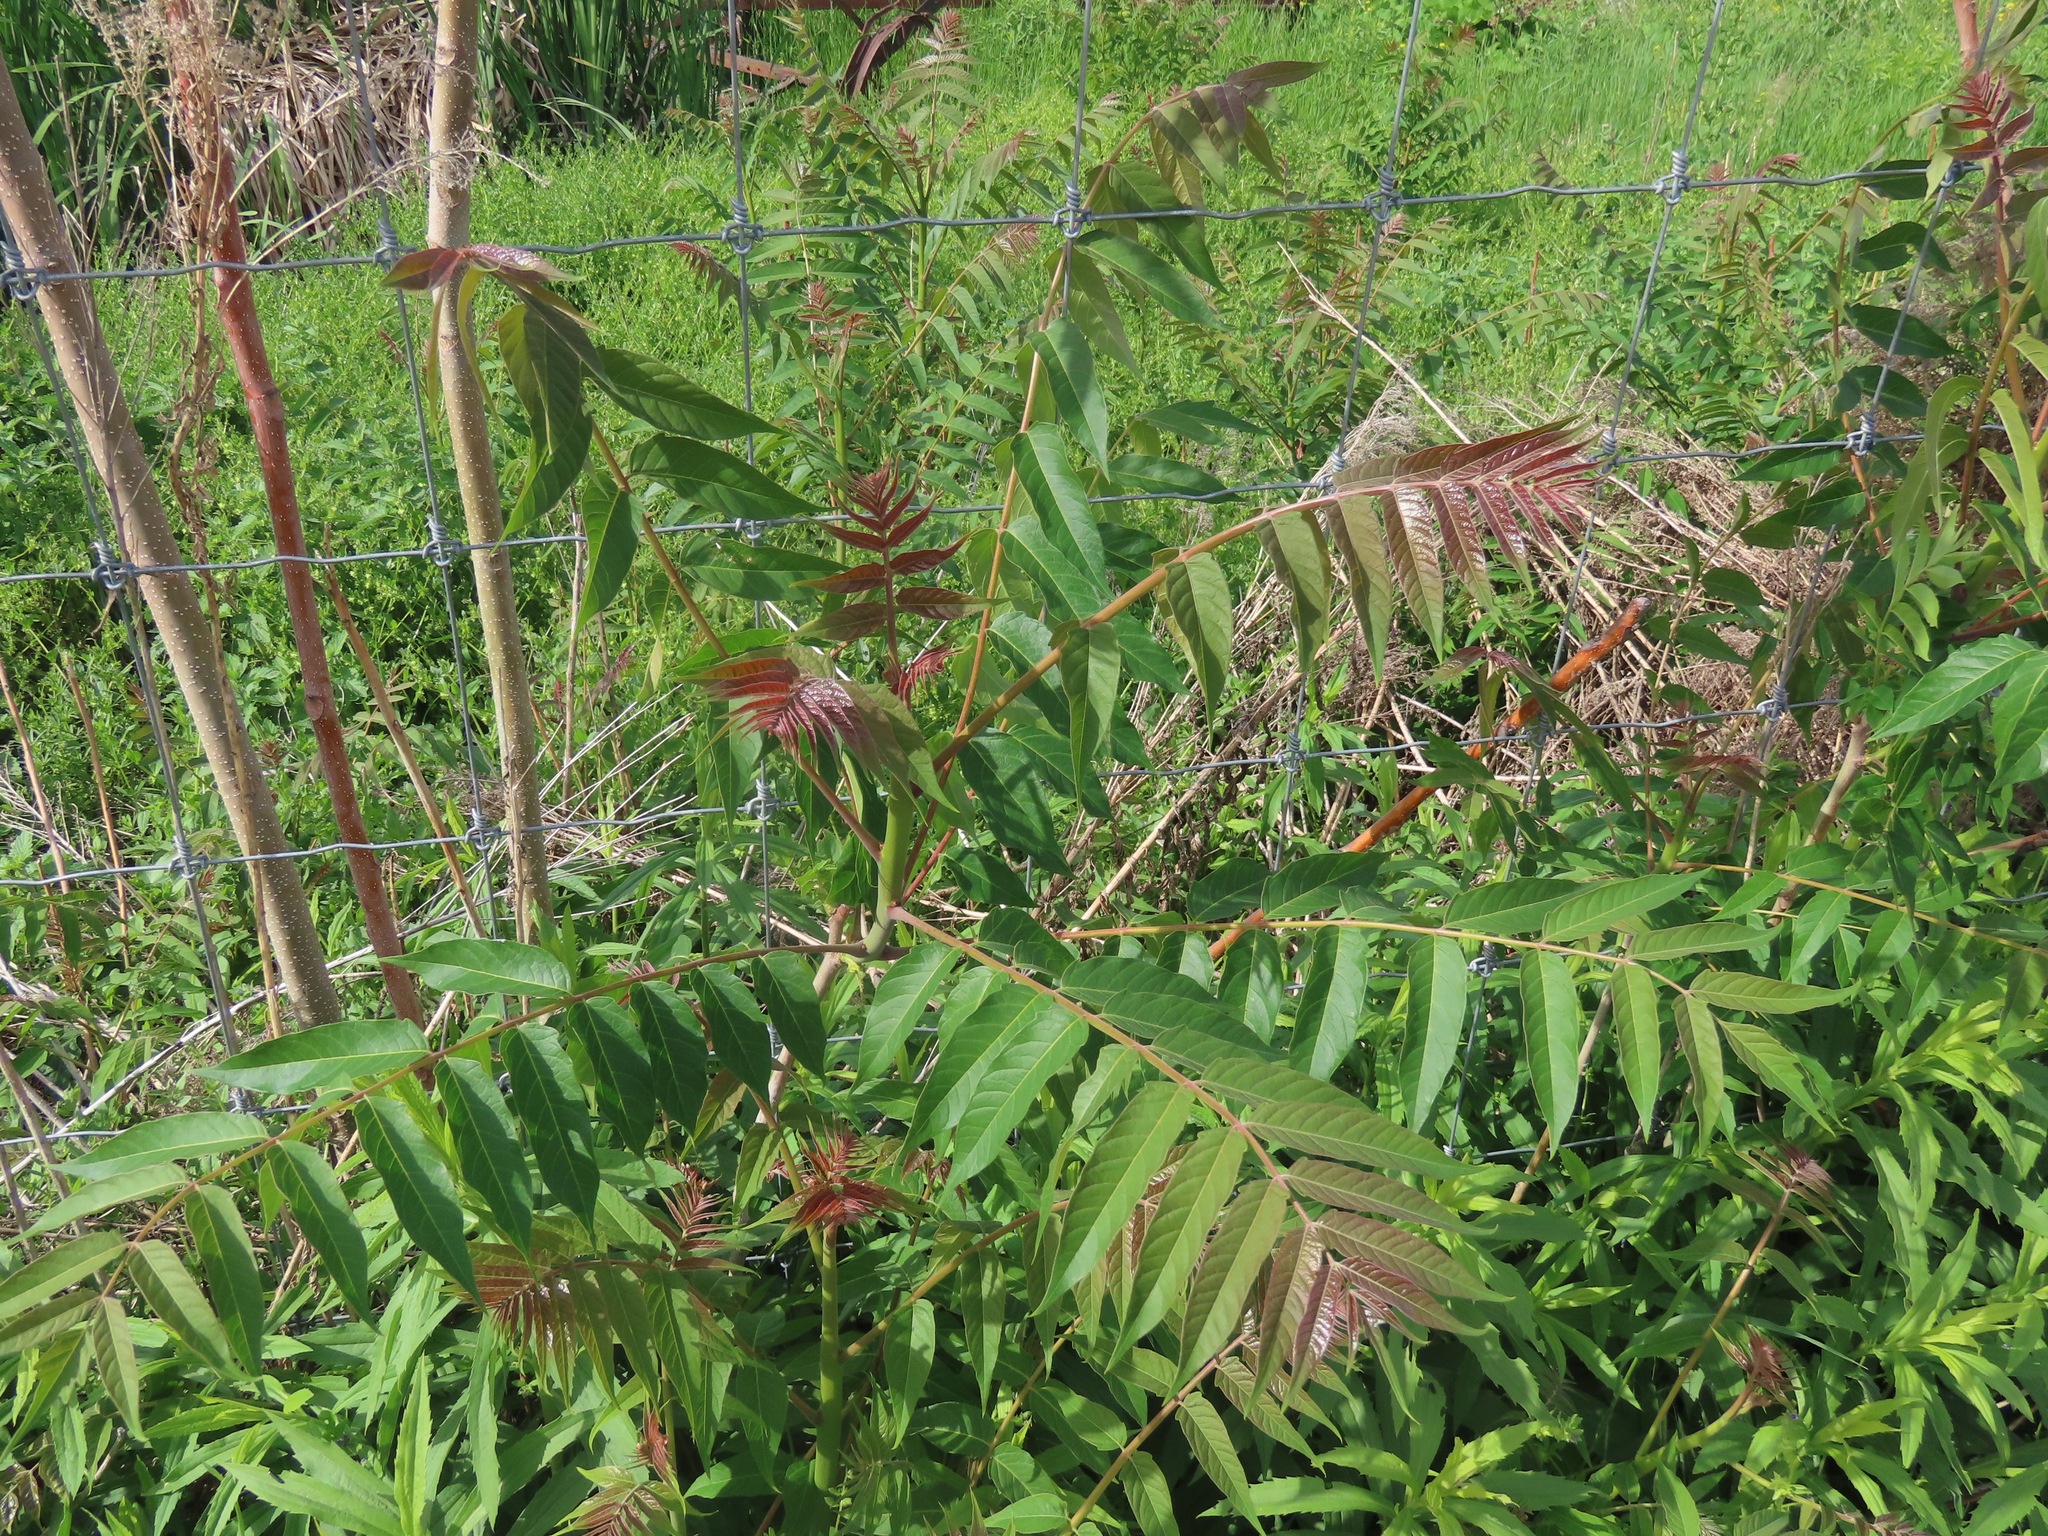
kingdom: Plantae
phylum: Tracheophyta
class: Magnoliopsida
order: Sapindales
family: Simaroubaceae
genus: Ailanthus
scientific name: Ailanthus altissima
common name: Tree-of-heaven
